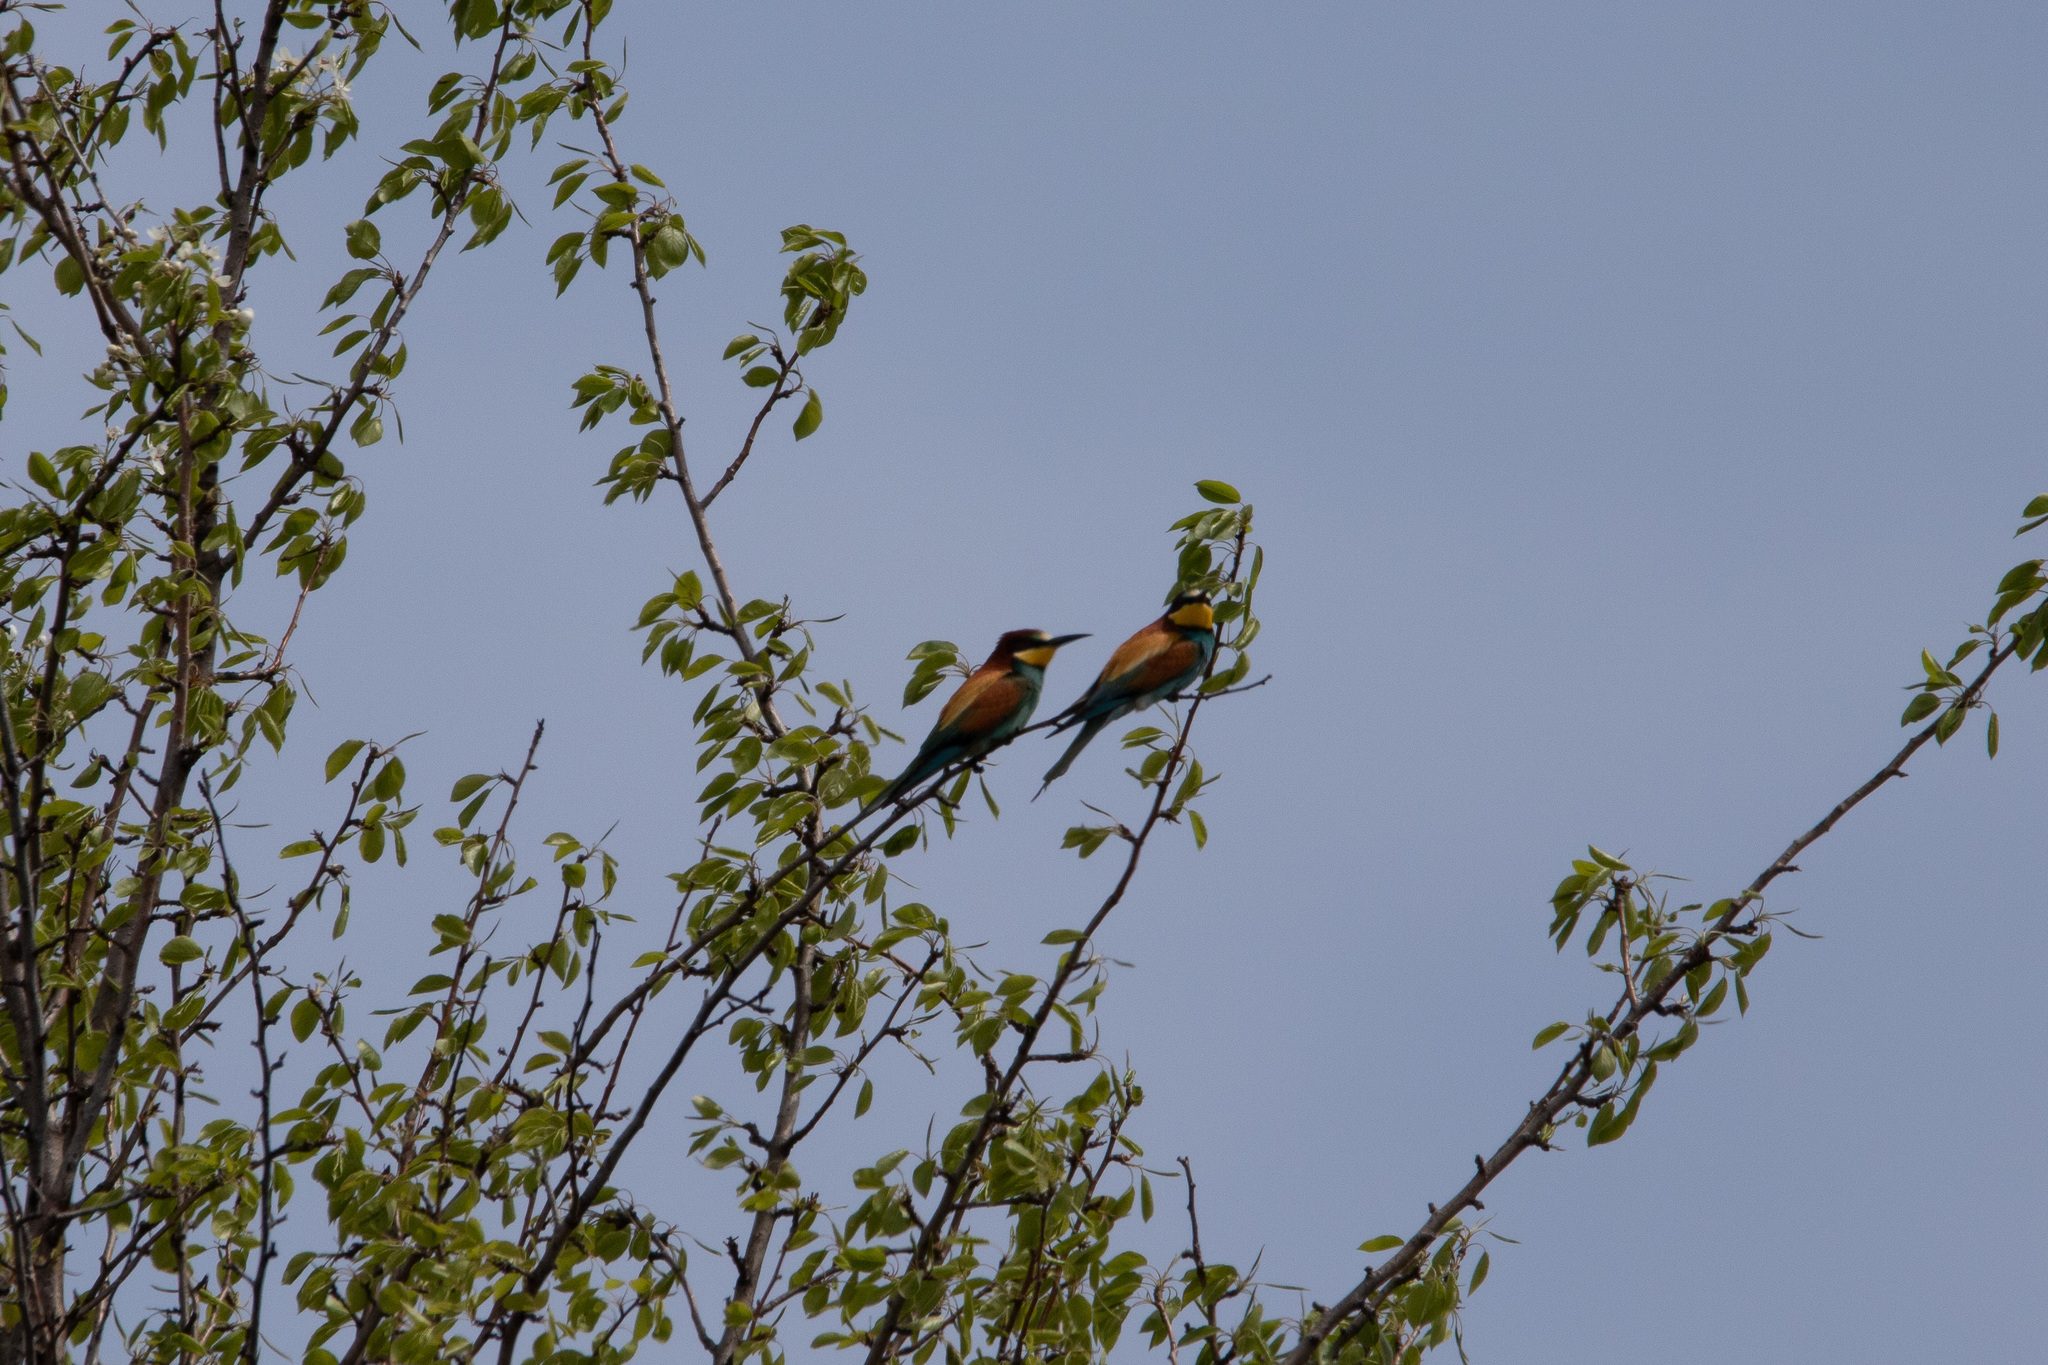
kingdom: Animalia
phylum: Chordata
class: Aves
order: Coraciiformes
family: Meropidae
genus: Merops
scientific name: Merops apiaster
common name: European bee-eater
